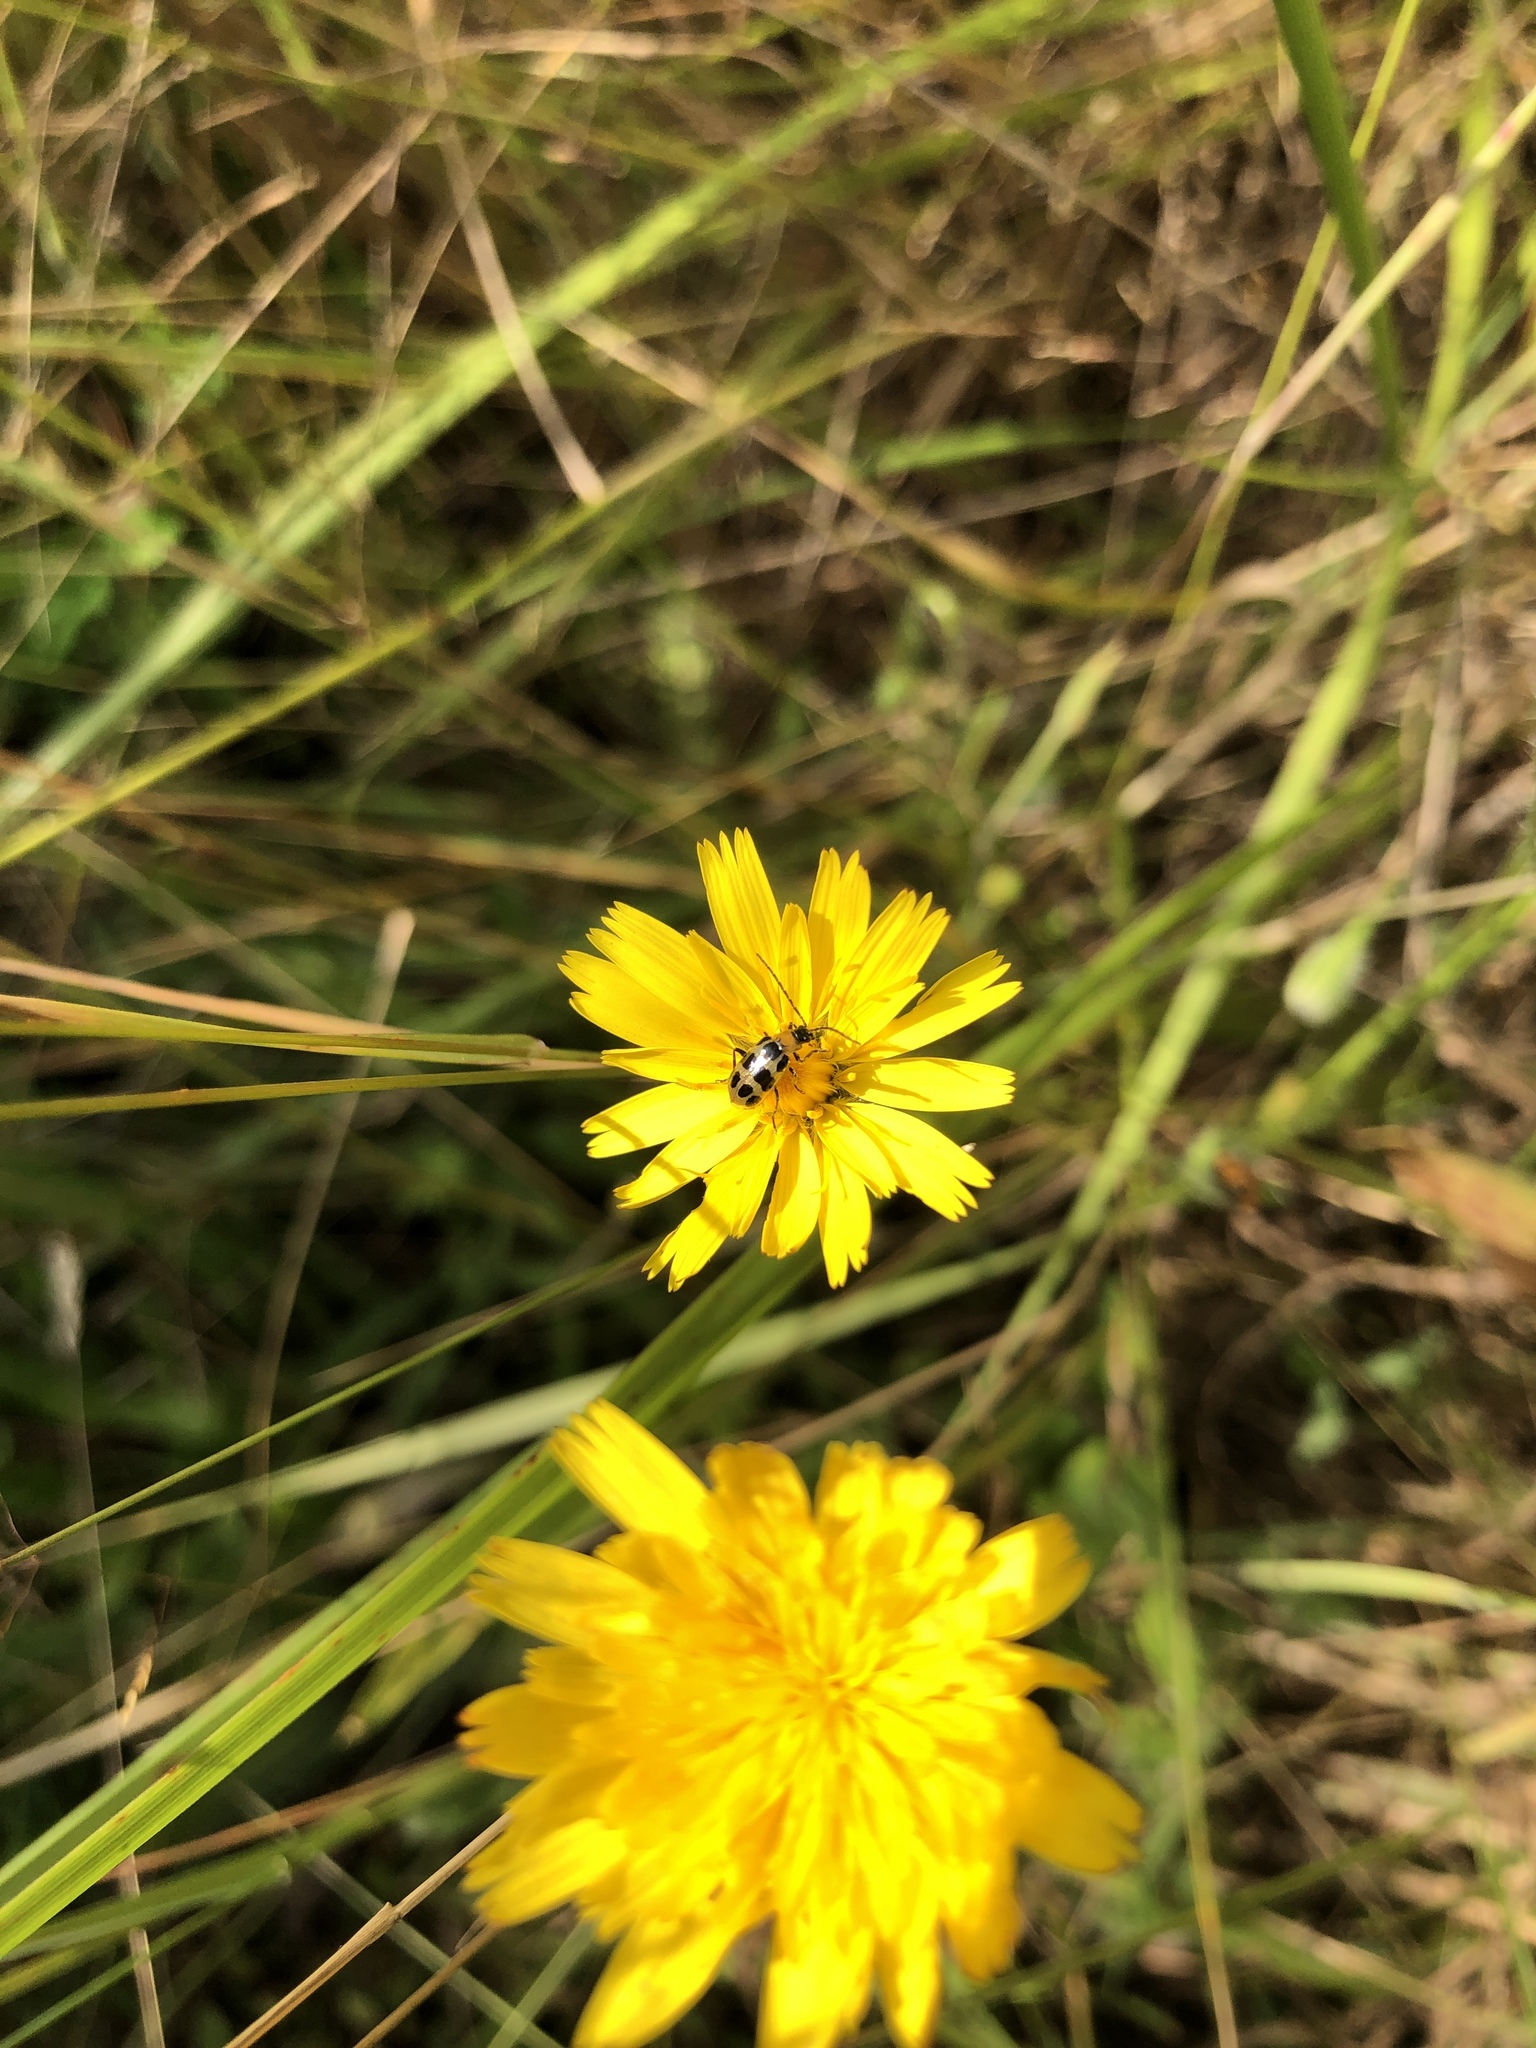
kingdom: Animalia
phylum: Arthropoda
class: Insecta
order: Coleoptera
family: Chrysomelidae
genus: Diabrotica
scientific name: Diabrotica undecimpunctata
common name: Spotted cucumber beetle
